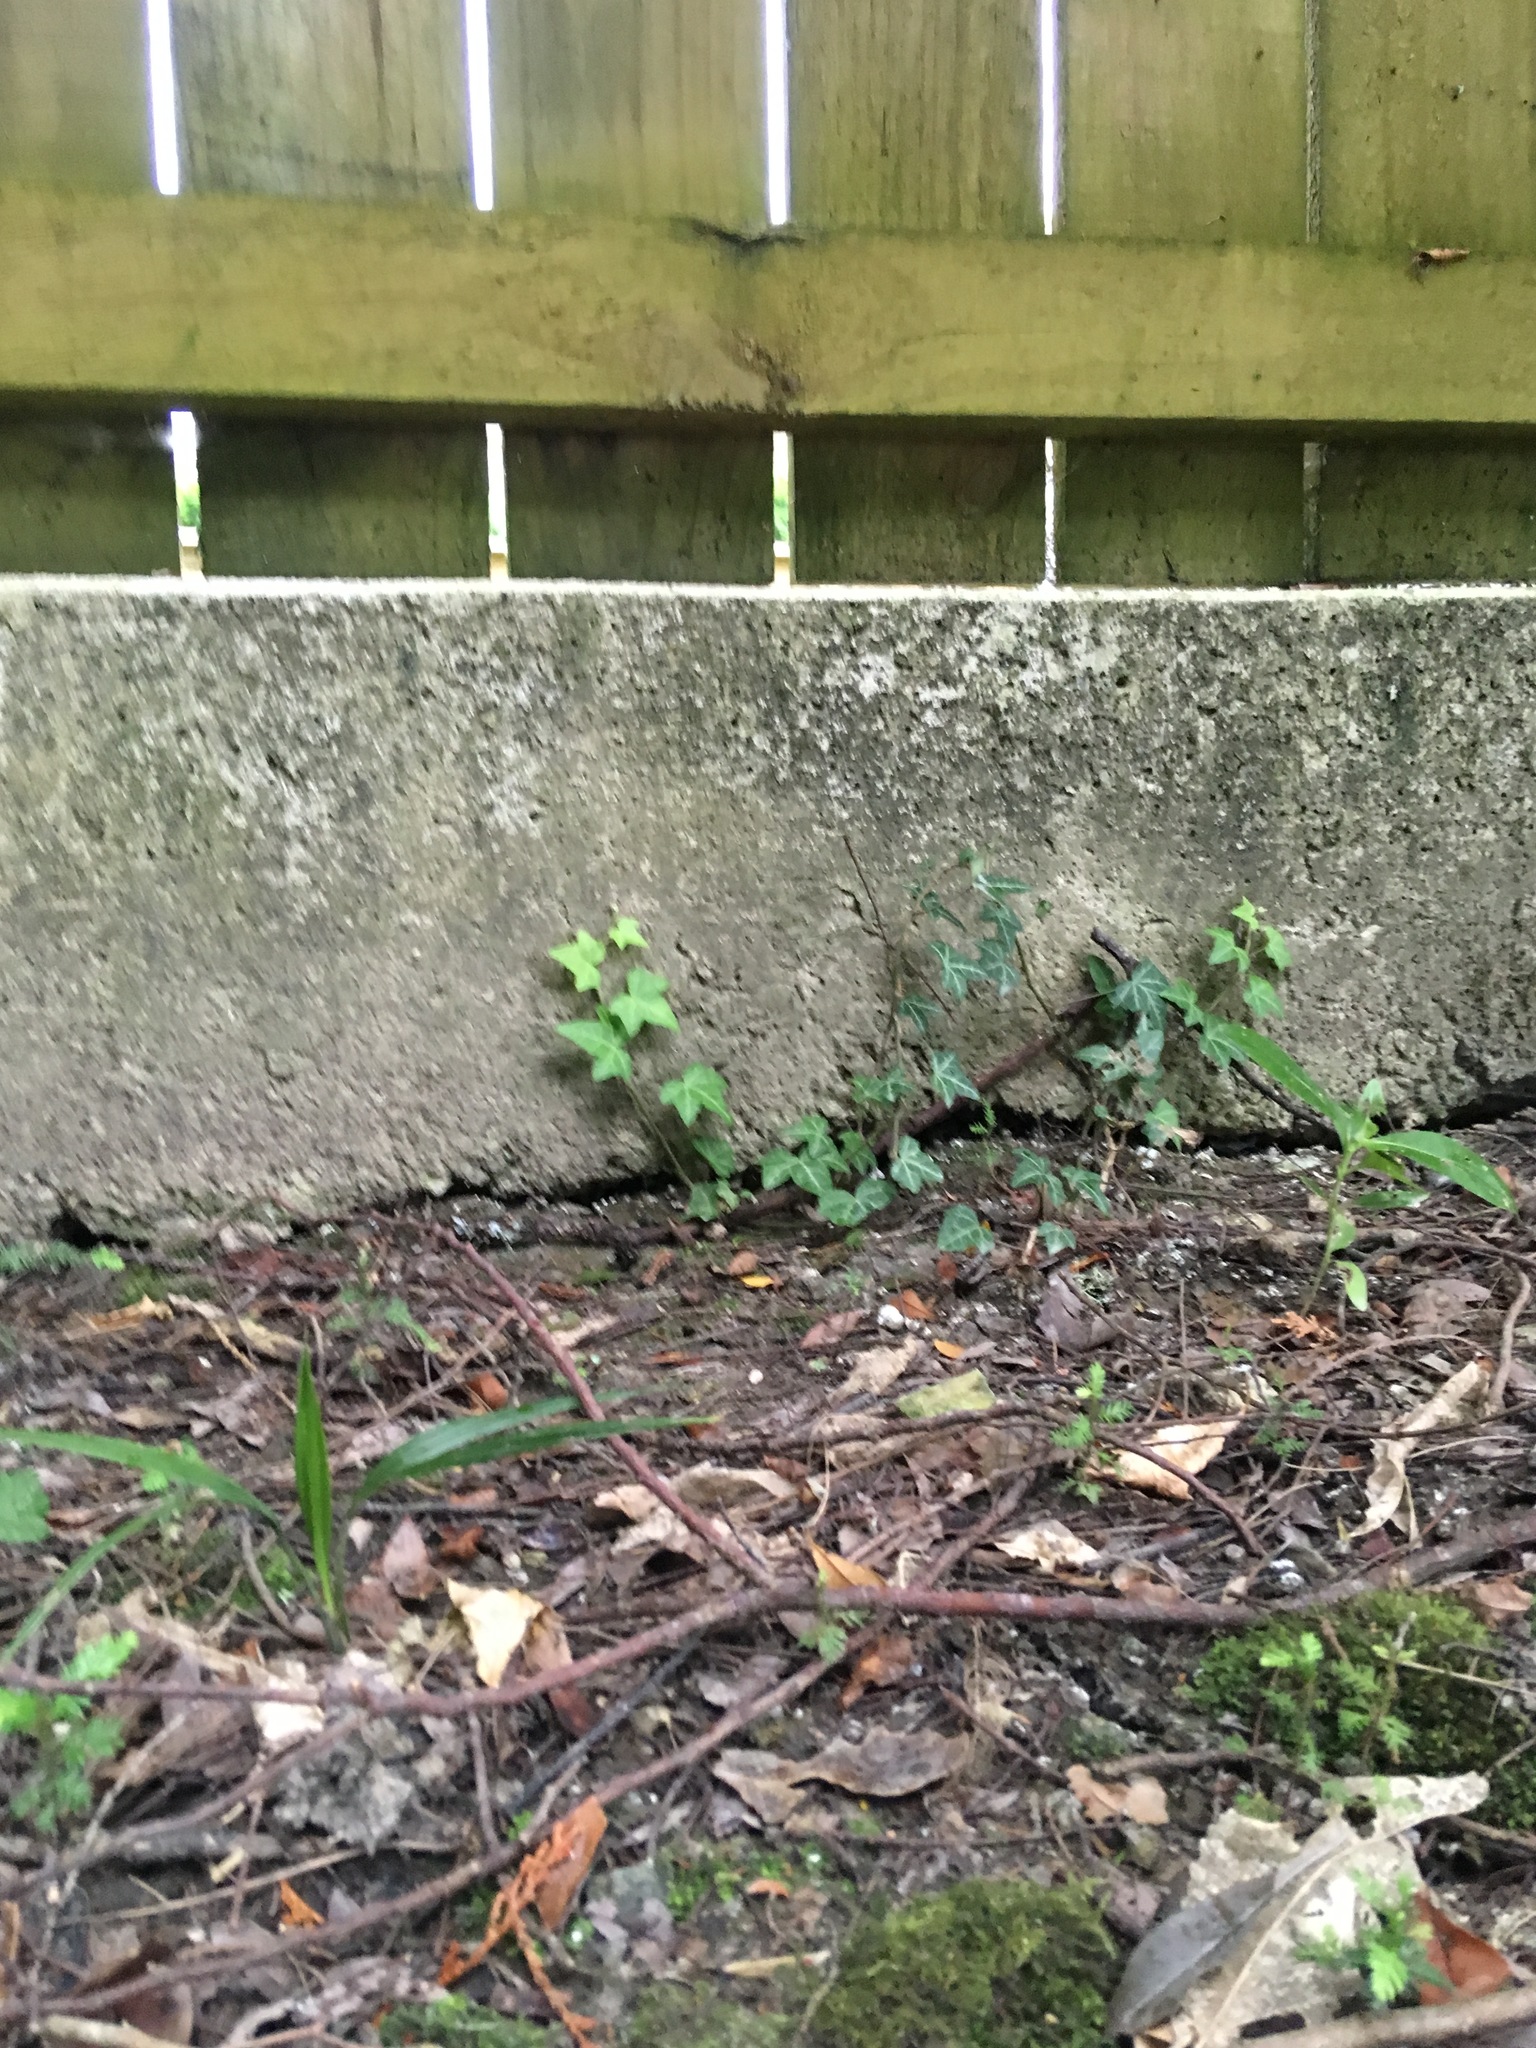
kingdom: Plantae
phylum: Tracheophyta
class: Magnoliopsida
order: Apiales
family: Araliaceae
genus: Hedera
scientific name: Hedera helix
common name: Ivy
